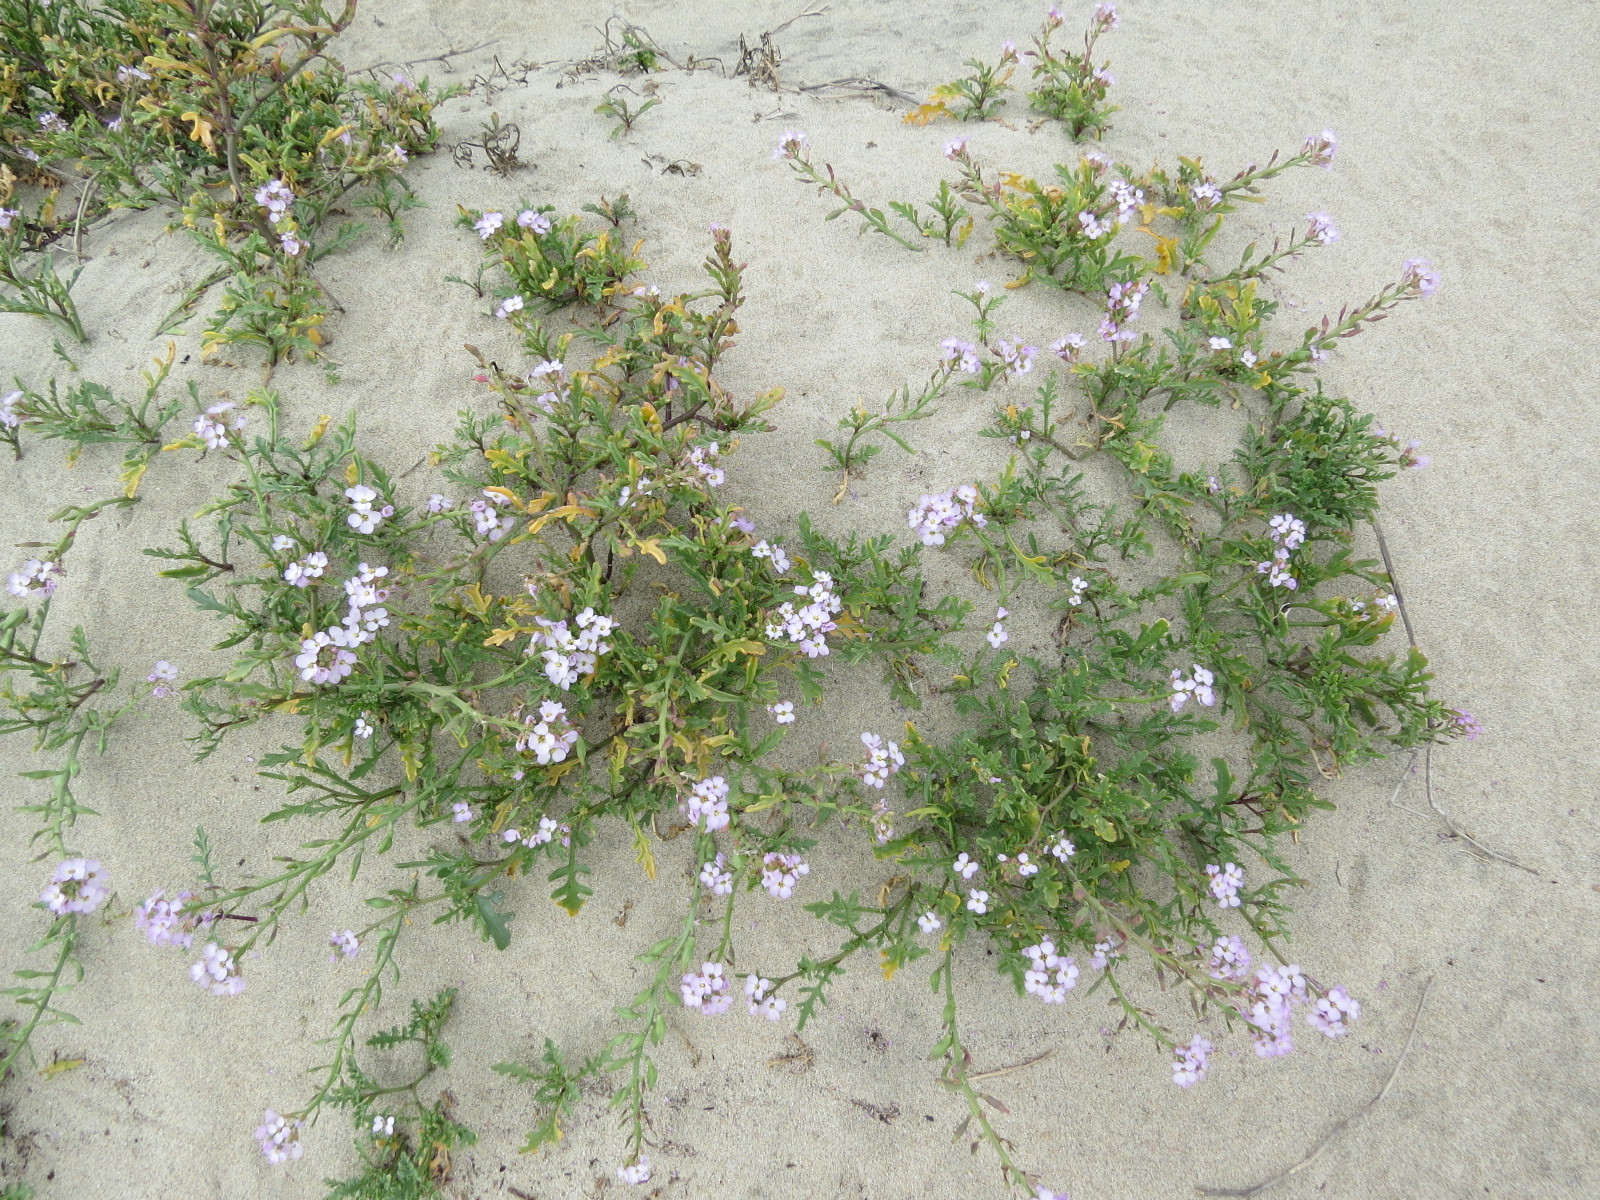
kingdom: Plantae
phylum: Tracheophyta
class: Magnoliopsida
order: Brassicales
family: Brassicaceae
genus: Cakile
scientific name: Cakile maritima
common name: Sea rocket
